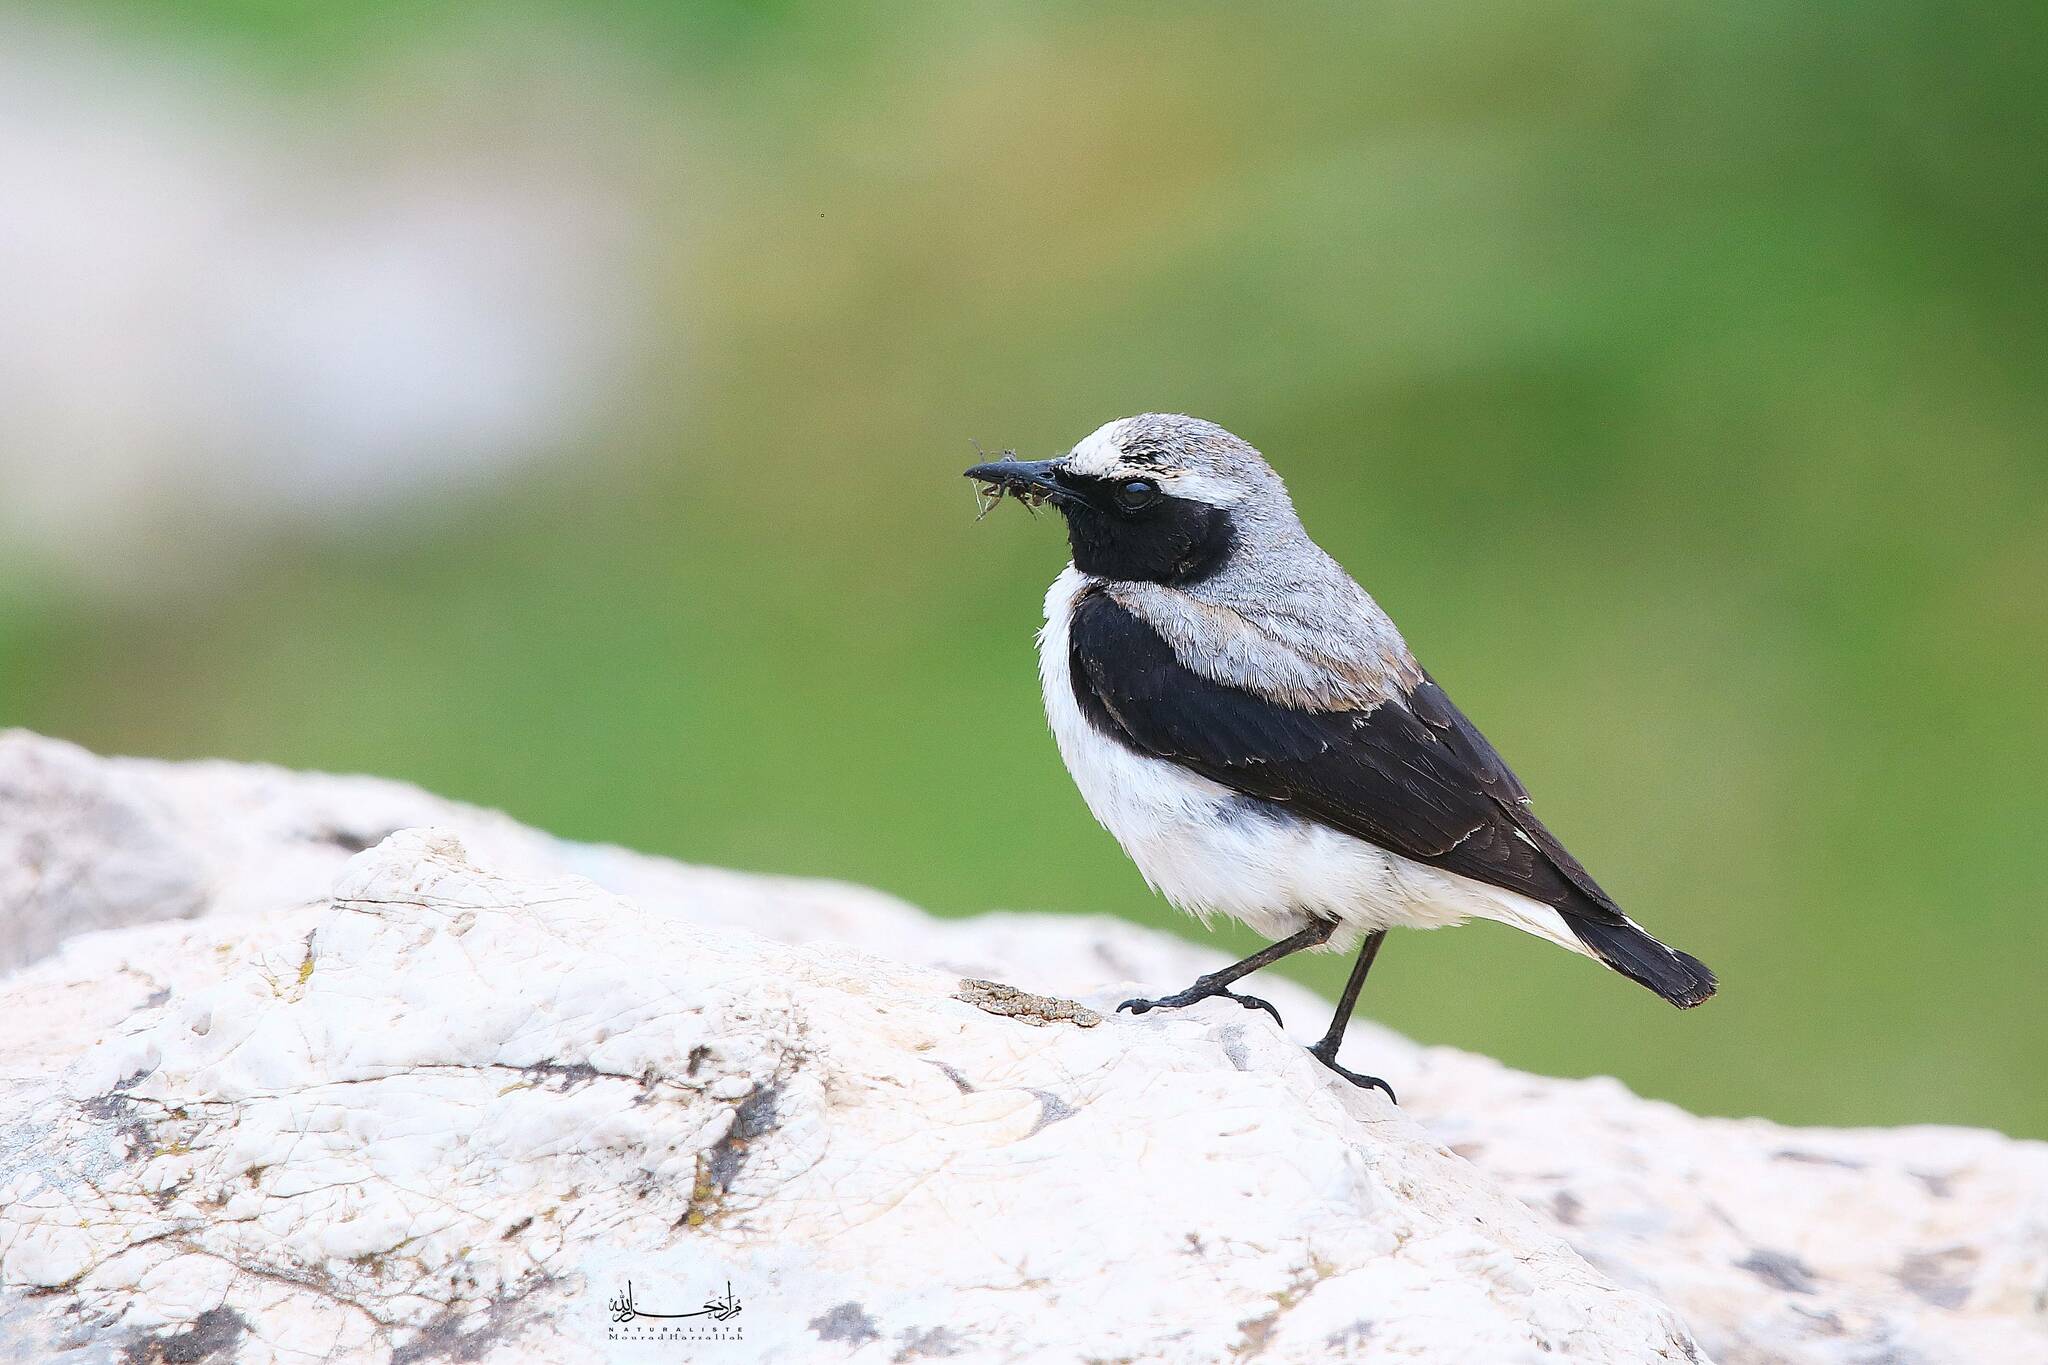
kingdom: Animalia
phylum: Chordata
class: Aves
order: Passeriformes
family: Muscicapidae
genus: Oenanthe
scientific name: Oenanthe oenanthe
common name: Northern wheatear
